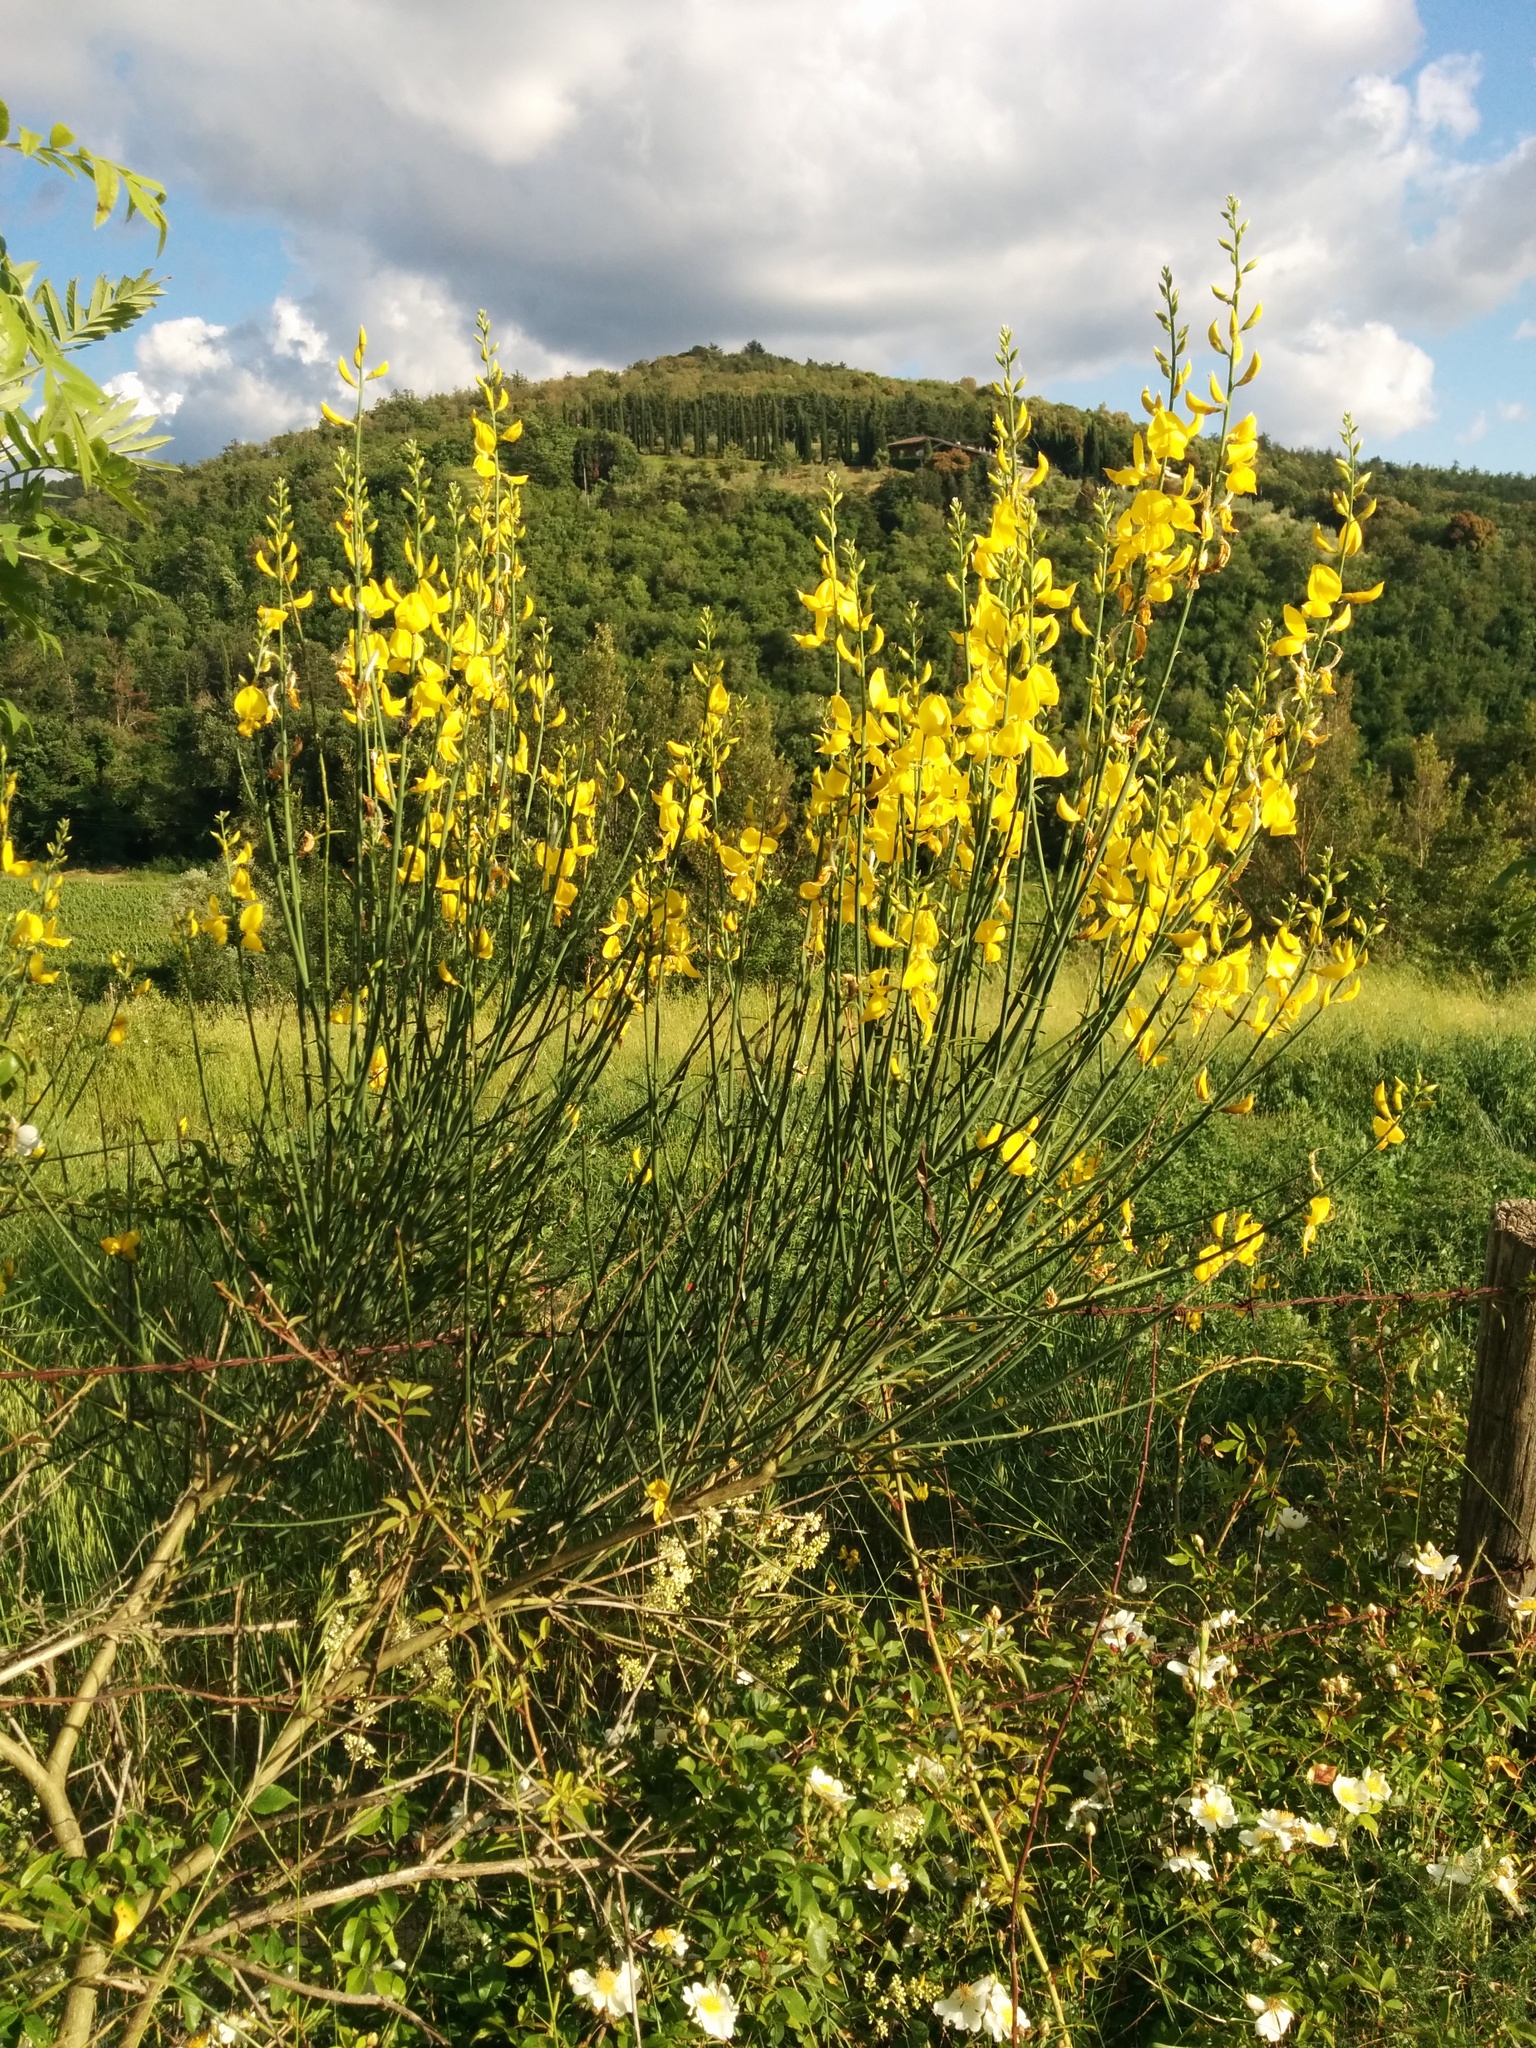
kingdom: Plantae
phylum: Tracheophyta
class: Magnoliopsida
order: Fabales
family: Fabaceae
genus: Spartium
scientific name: Spartium junceum
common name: Spanish broom
